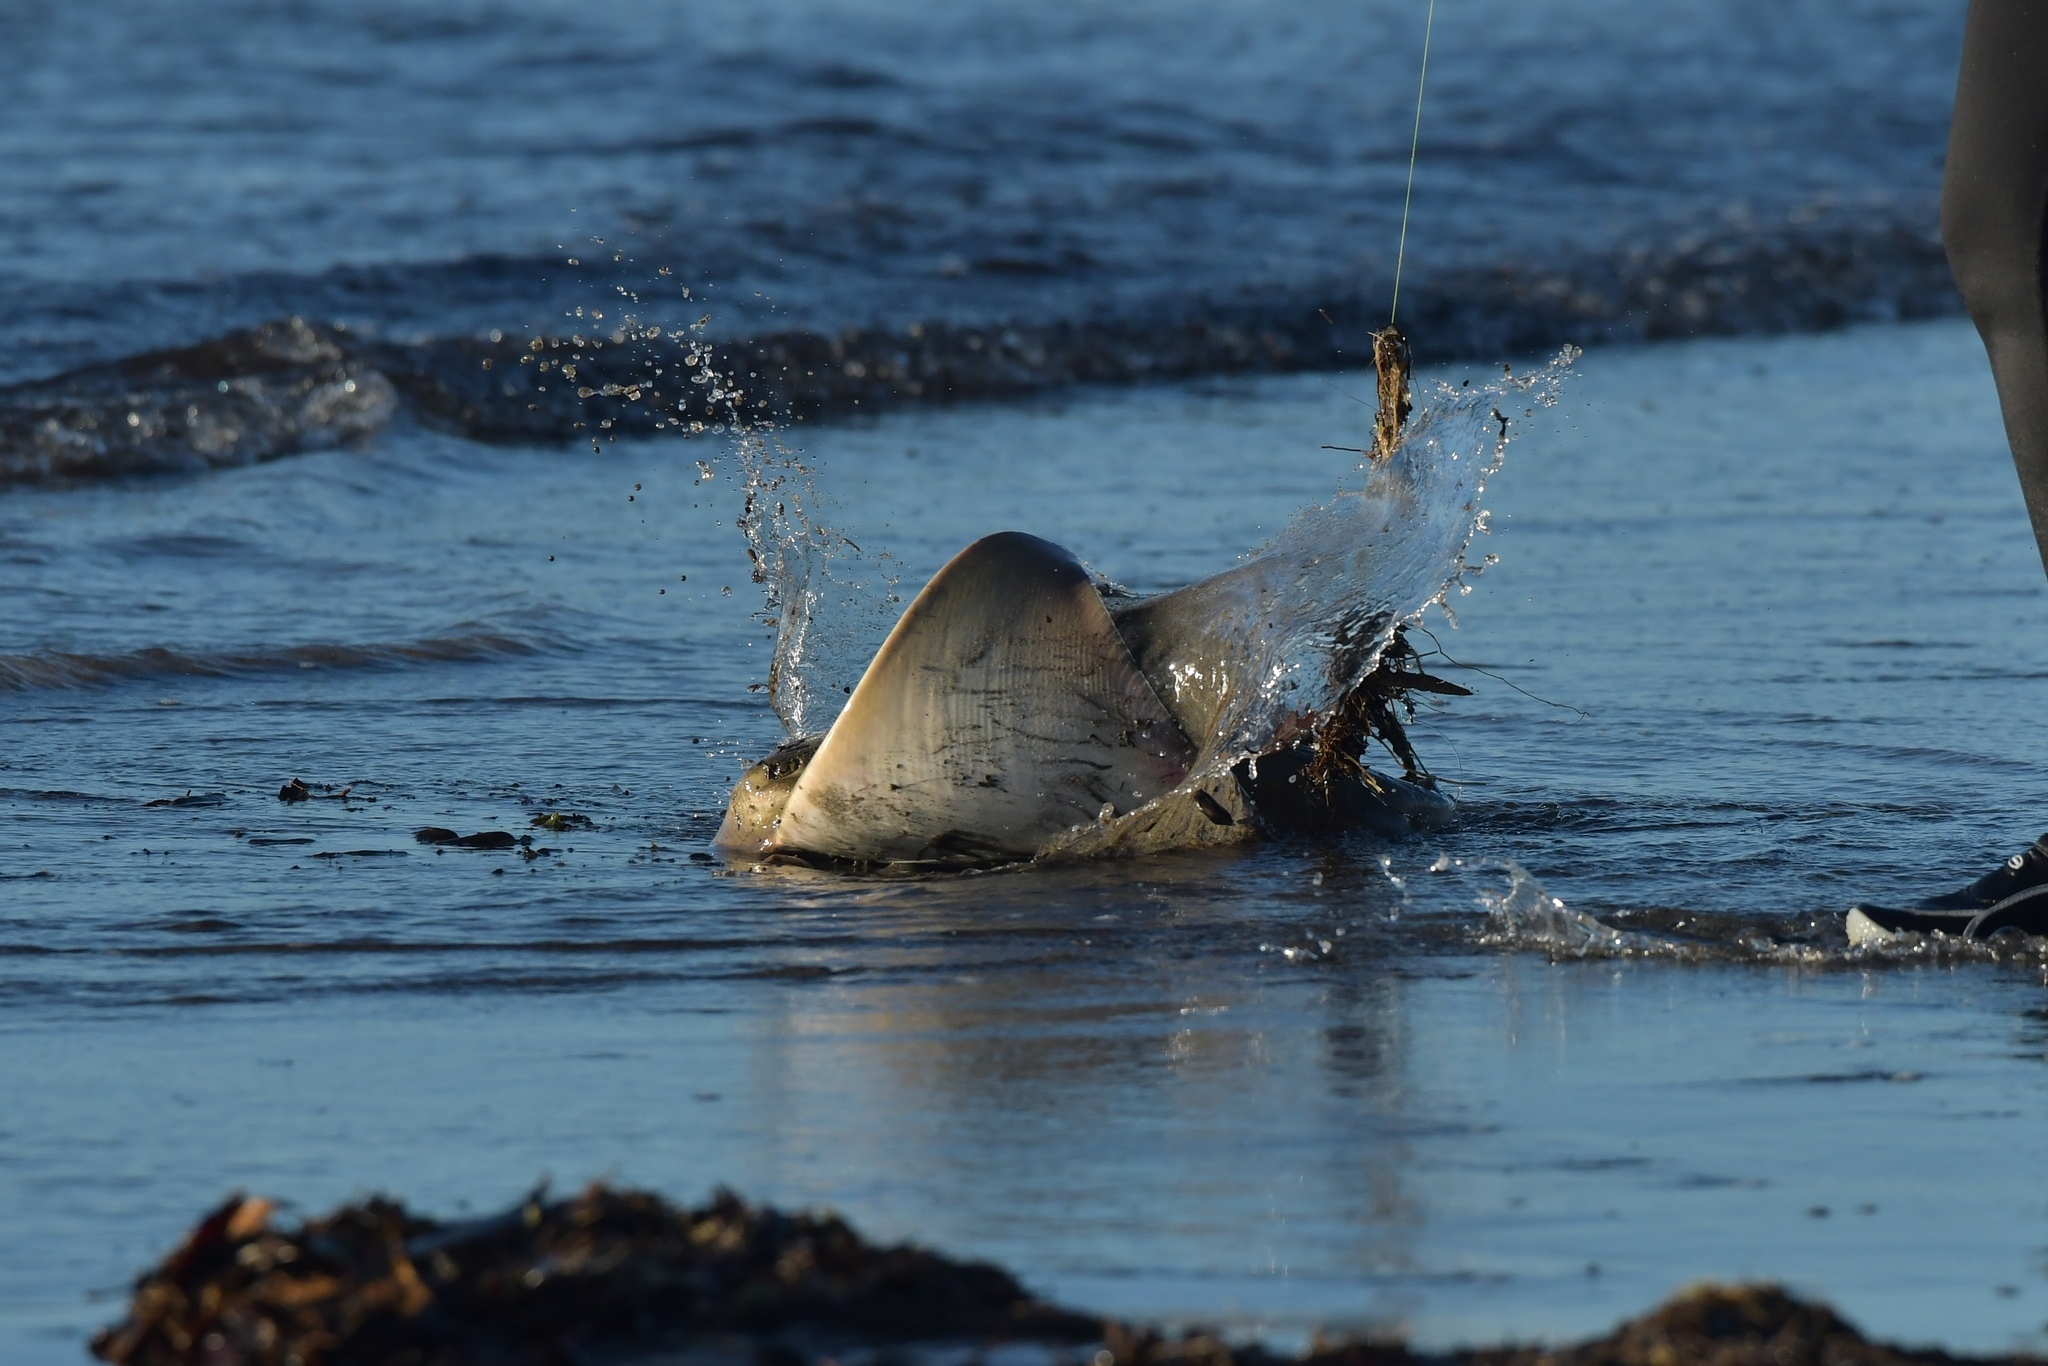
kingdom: Animalia
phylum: Chordata
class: Elasmobranchii
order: Myliobatiformes
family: Myliobatidae
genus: Myliobatis
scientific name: Myliobatis tenuicaudatus
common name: Eagle ray
